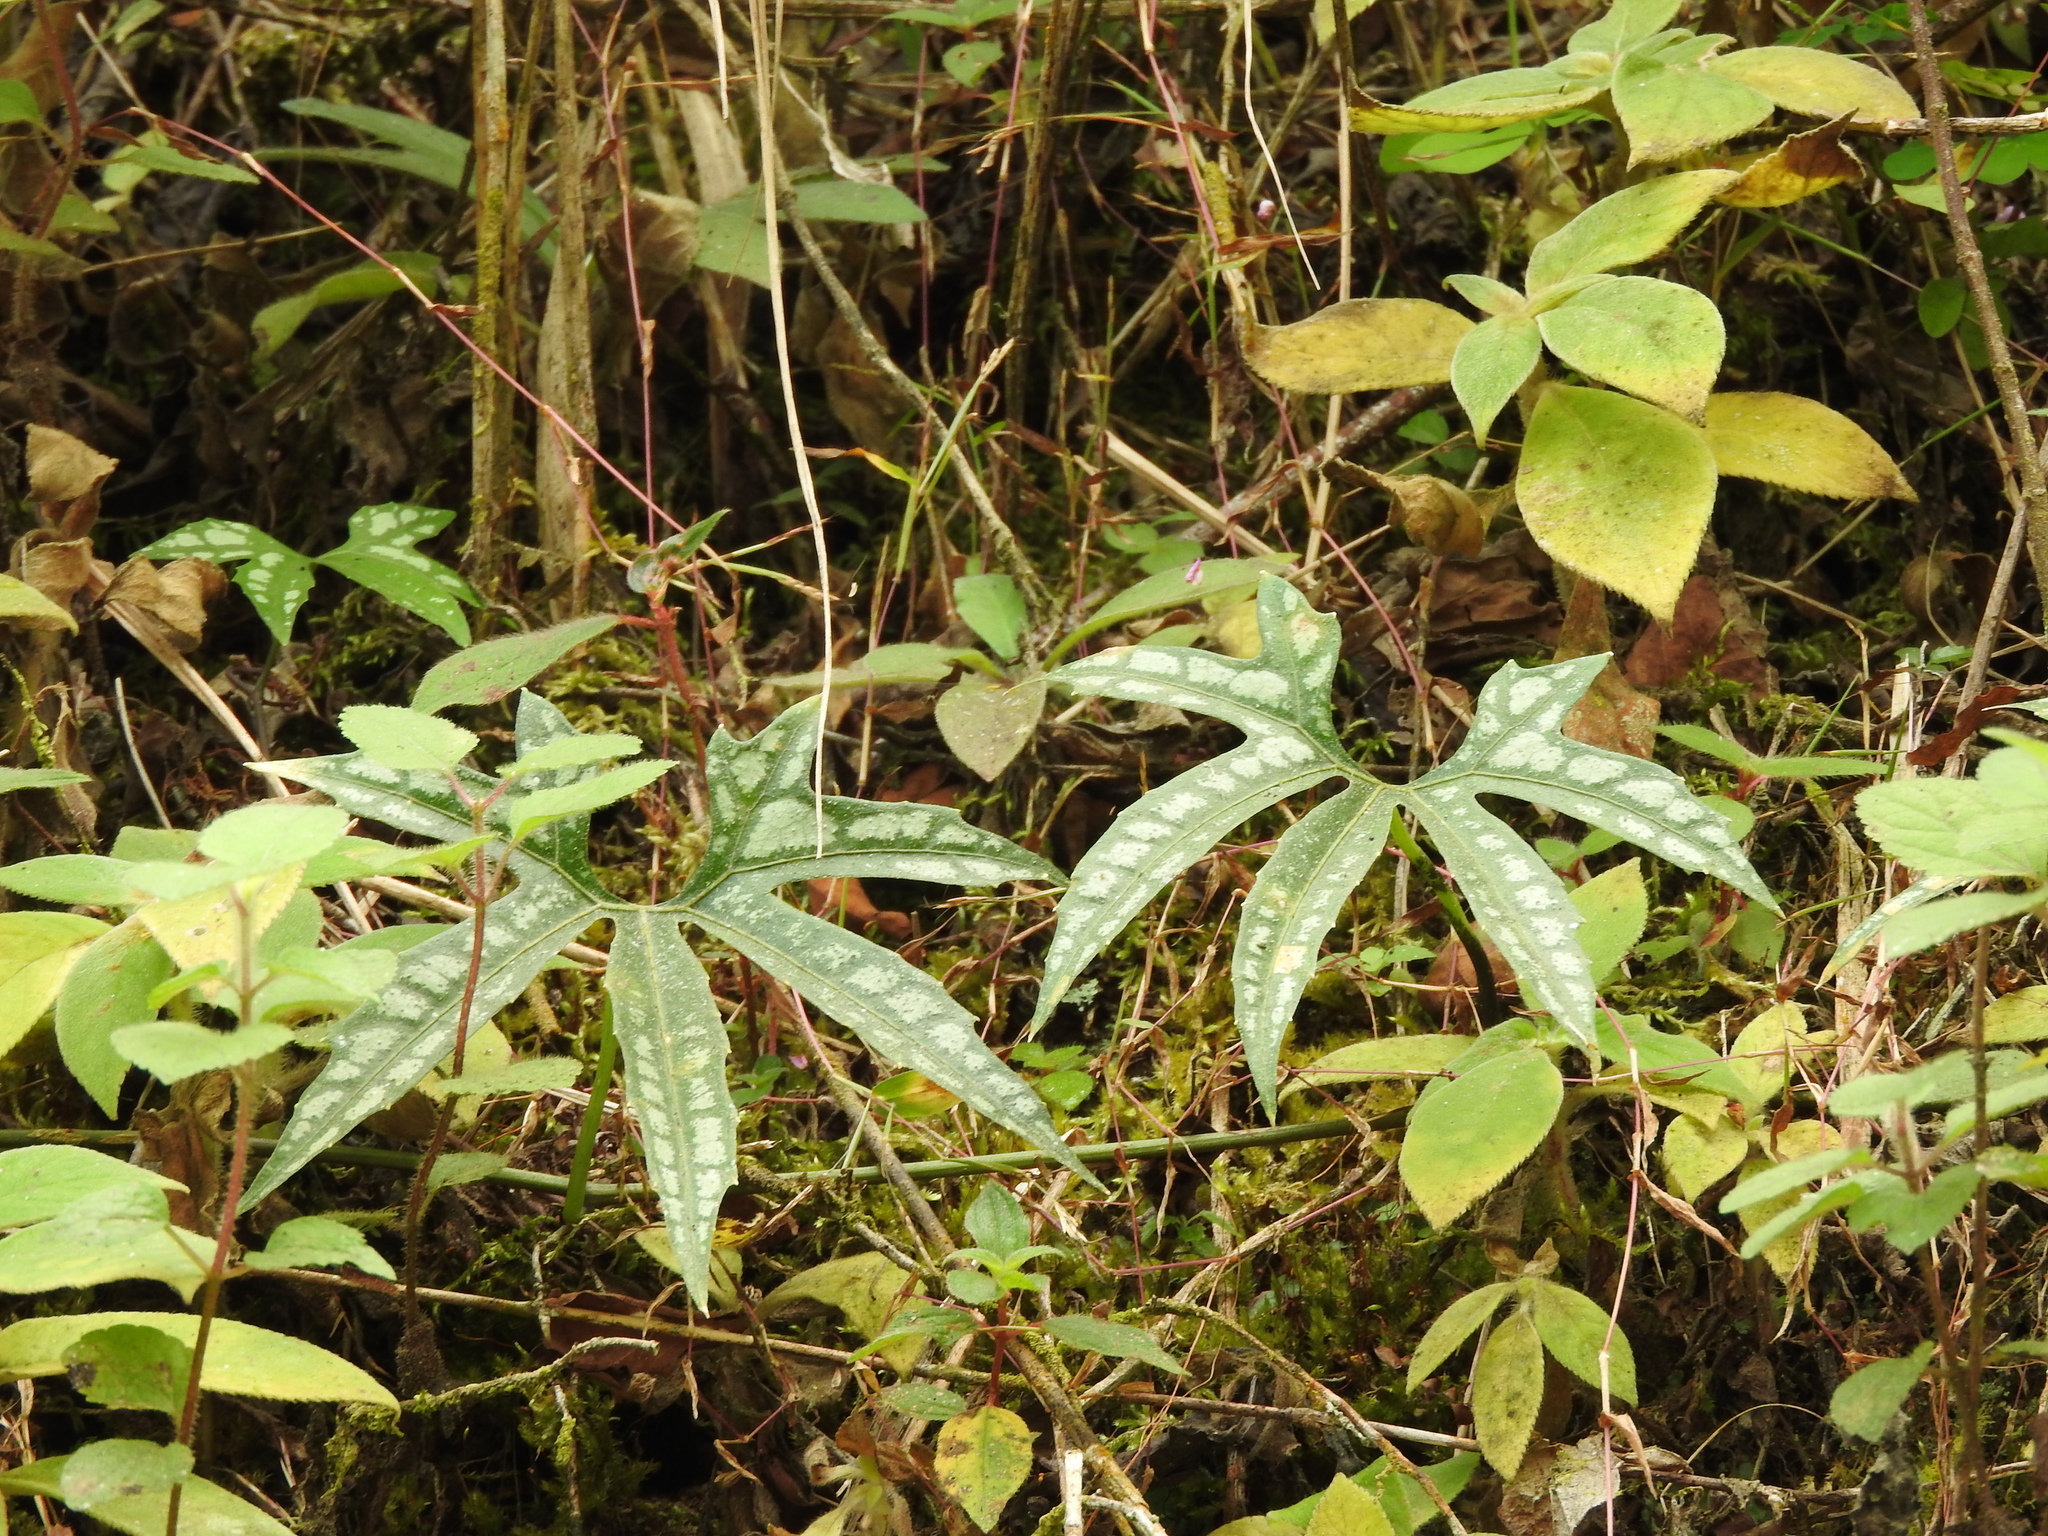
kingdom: Plantae
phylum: Tracheophyta
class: Magnoliopsida
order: Cucurbitales
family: Cucurbitaceae
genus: Cayaponia
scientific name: Cayaponia longiloba
